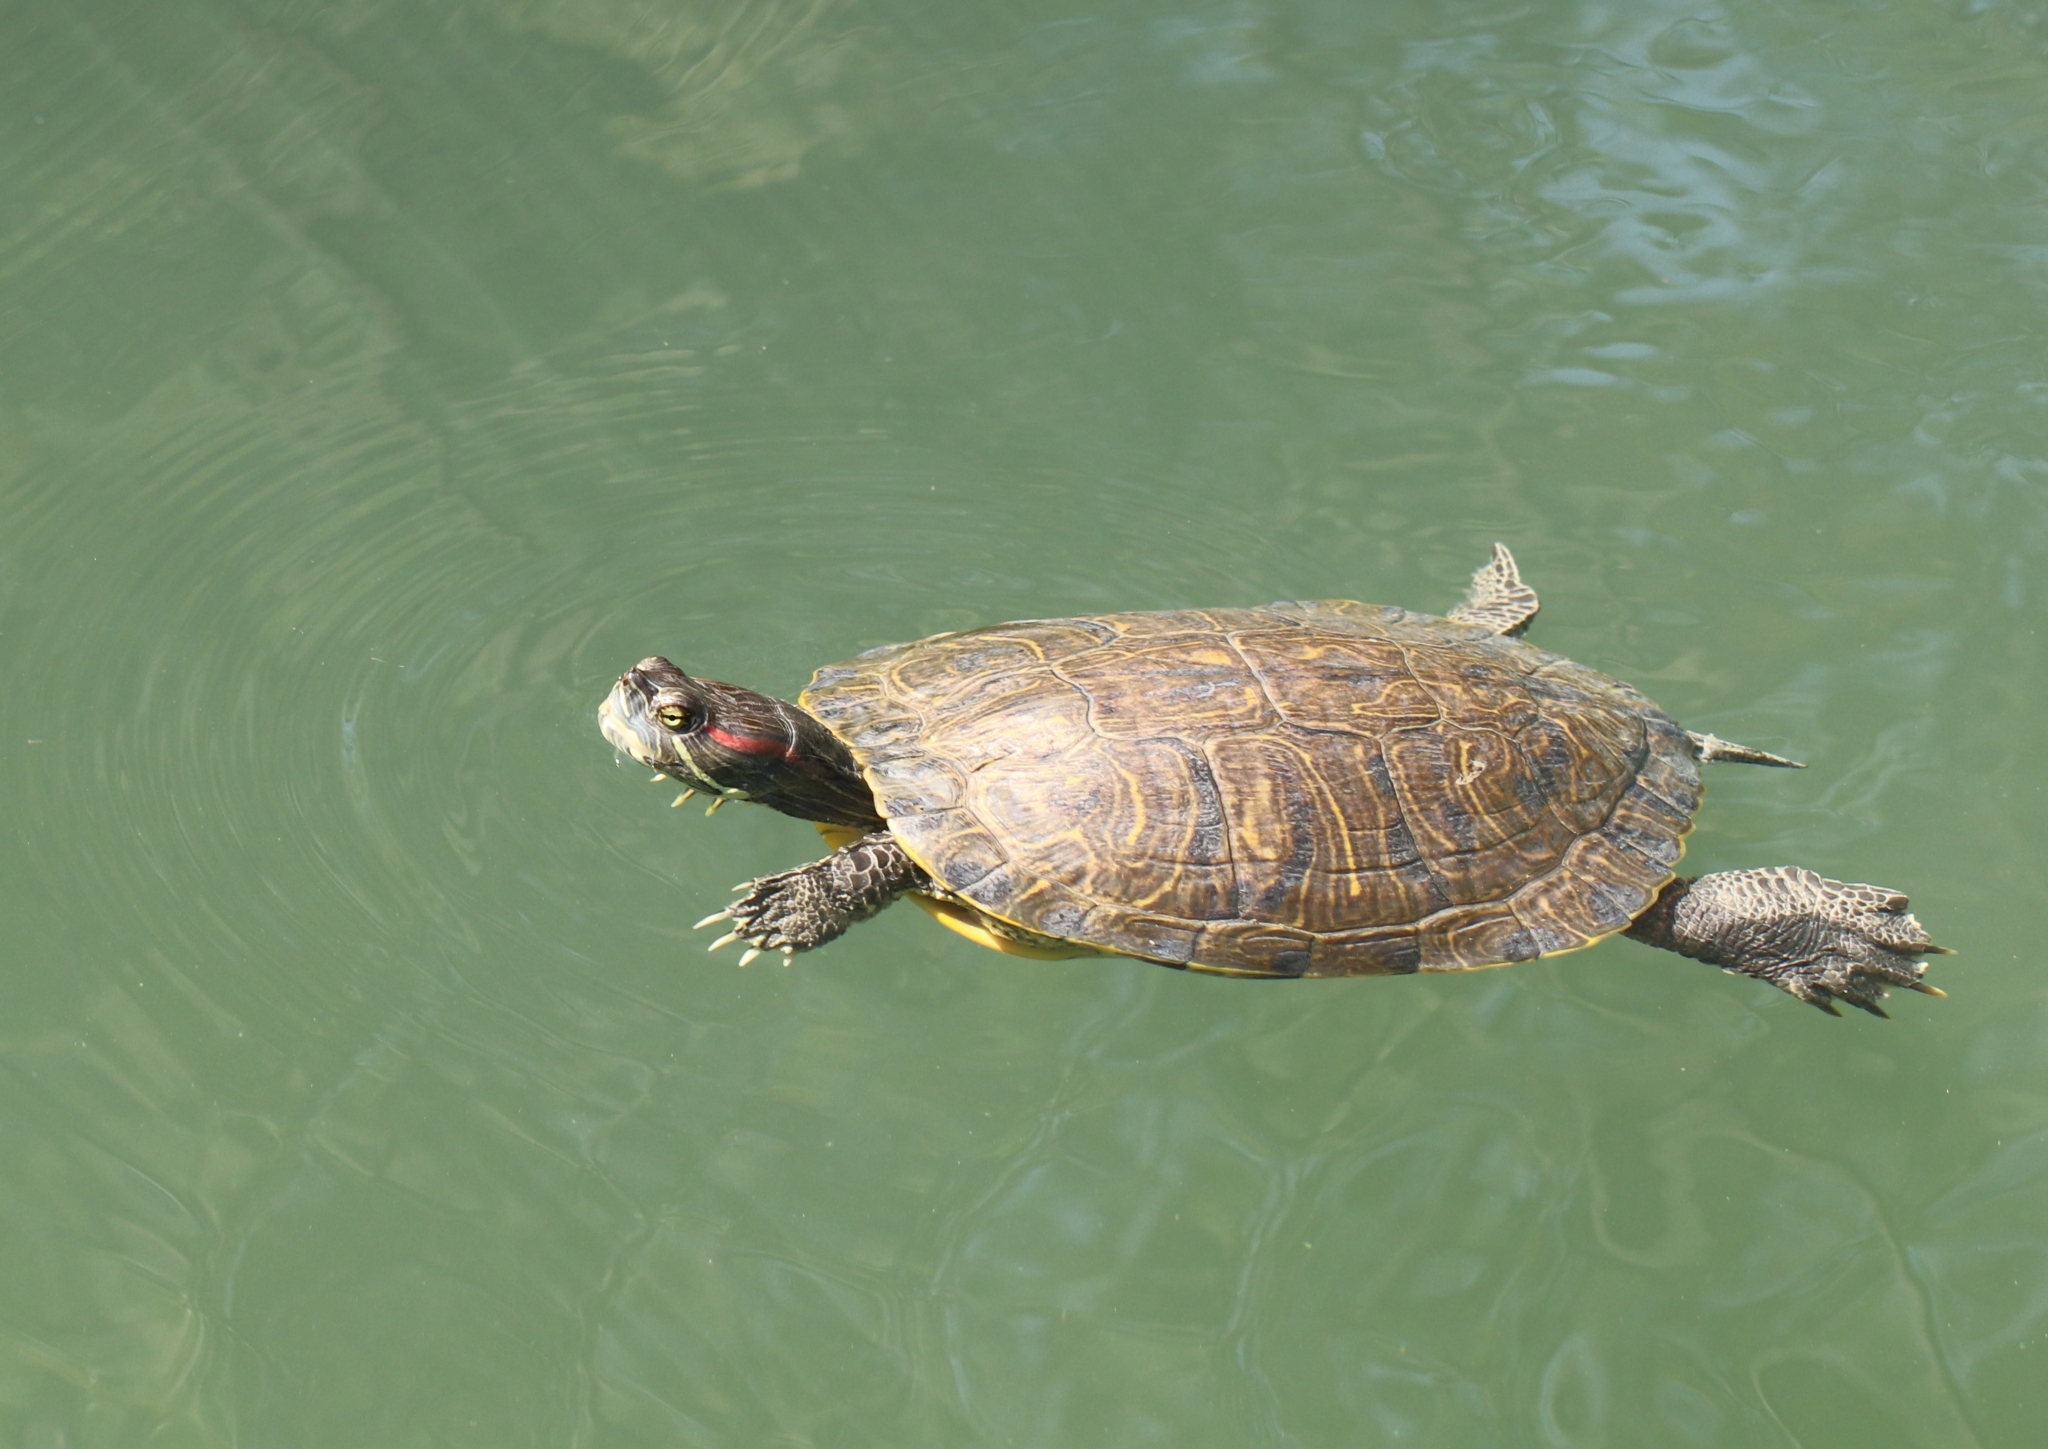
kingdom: Animalia
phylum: Chordata
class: Testudines
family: Emydidae
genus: Trachemys
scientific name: Trachemys scripta
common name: Slider
